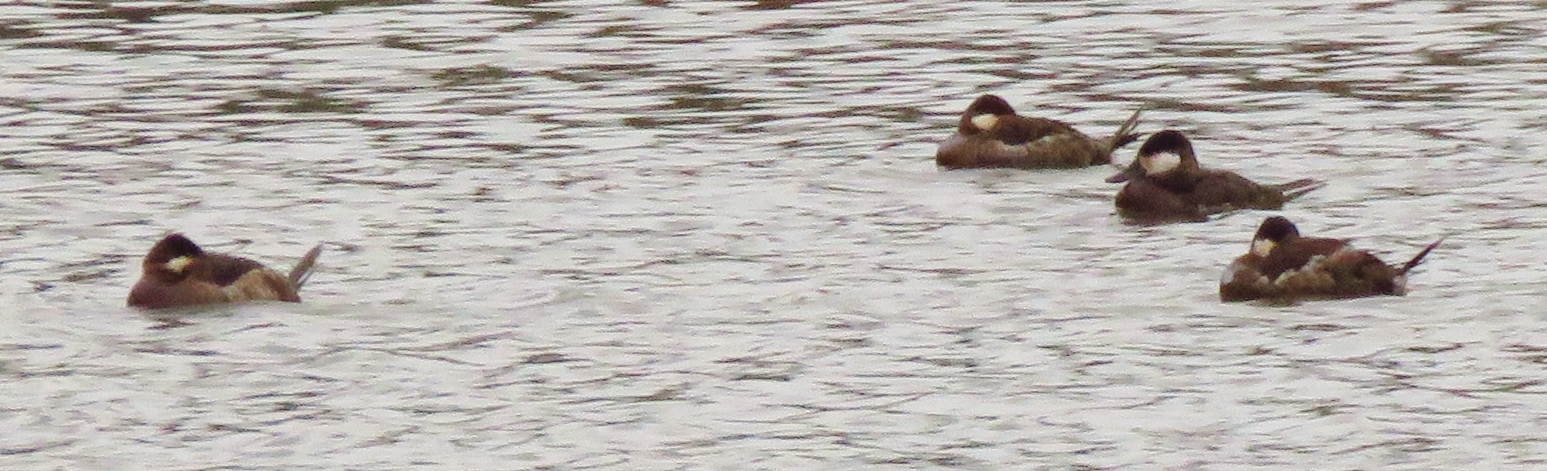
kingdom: Animalia
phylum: Chordata
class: Aves
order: Anseriformes
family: Anatidae
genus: Oxyura
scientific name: Oxyura jamaicensis
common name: Ruddy duck
